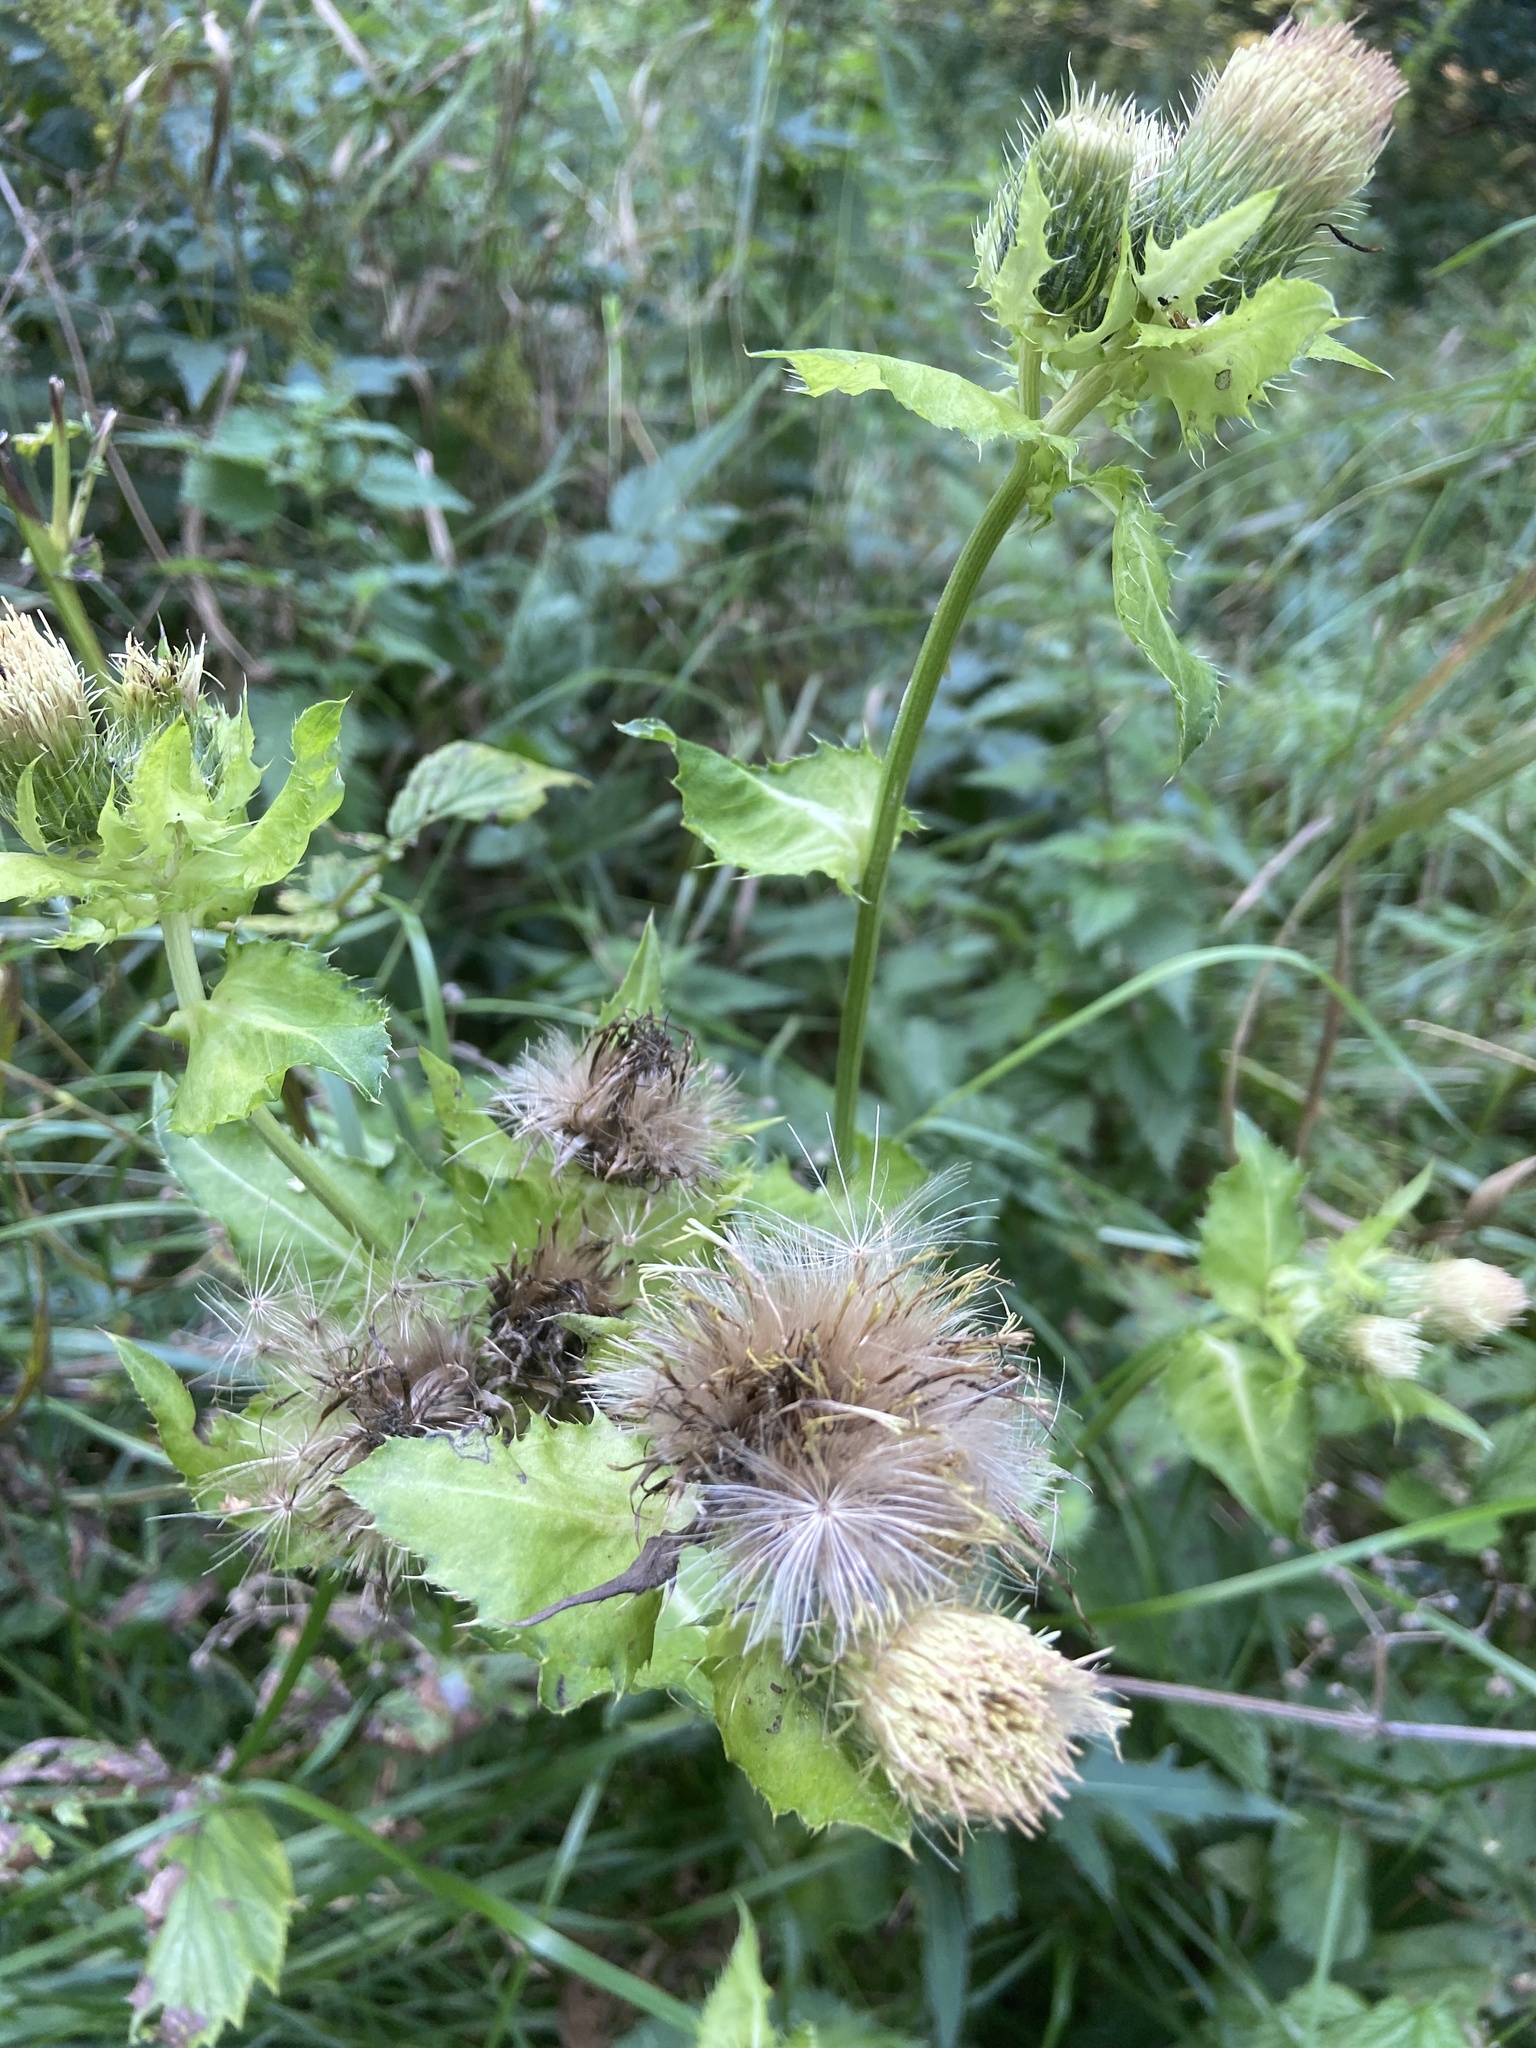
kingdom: Plantae
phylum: Tracheophyta
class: Magnoliopsida
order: Asterales
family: Asteraceae
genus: Cirsium
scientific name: Cirsium oleraceum
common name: Cabbage thistle
